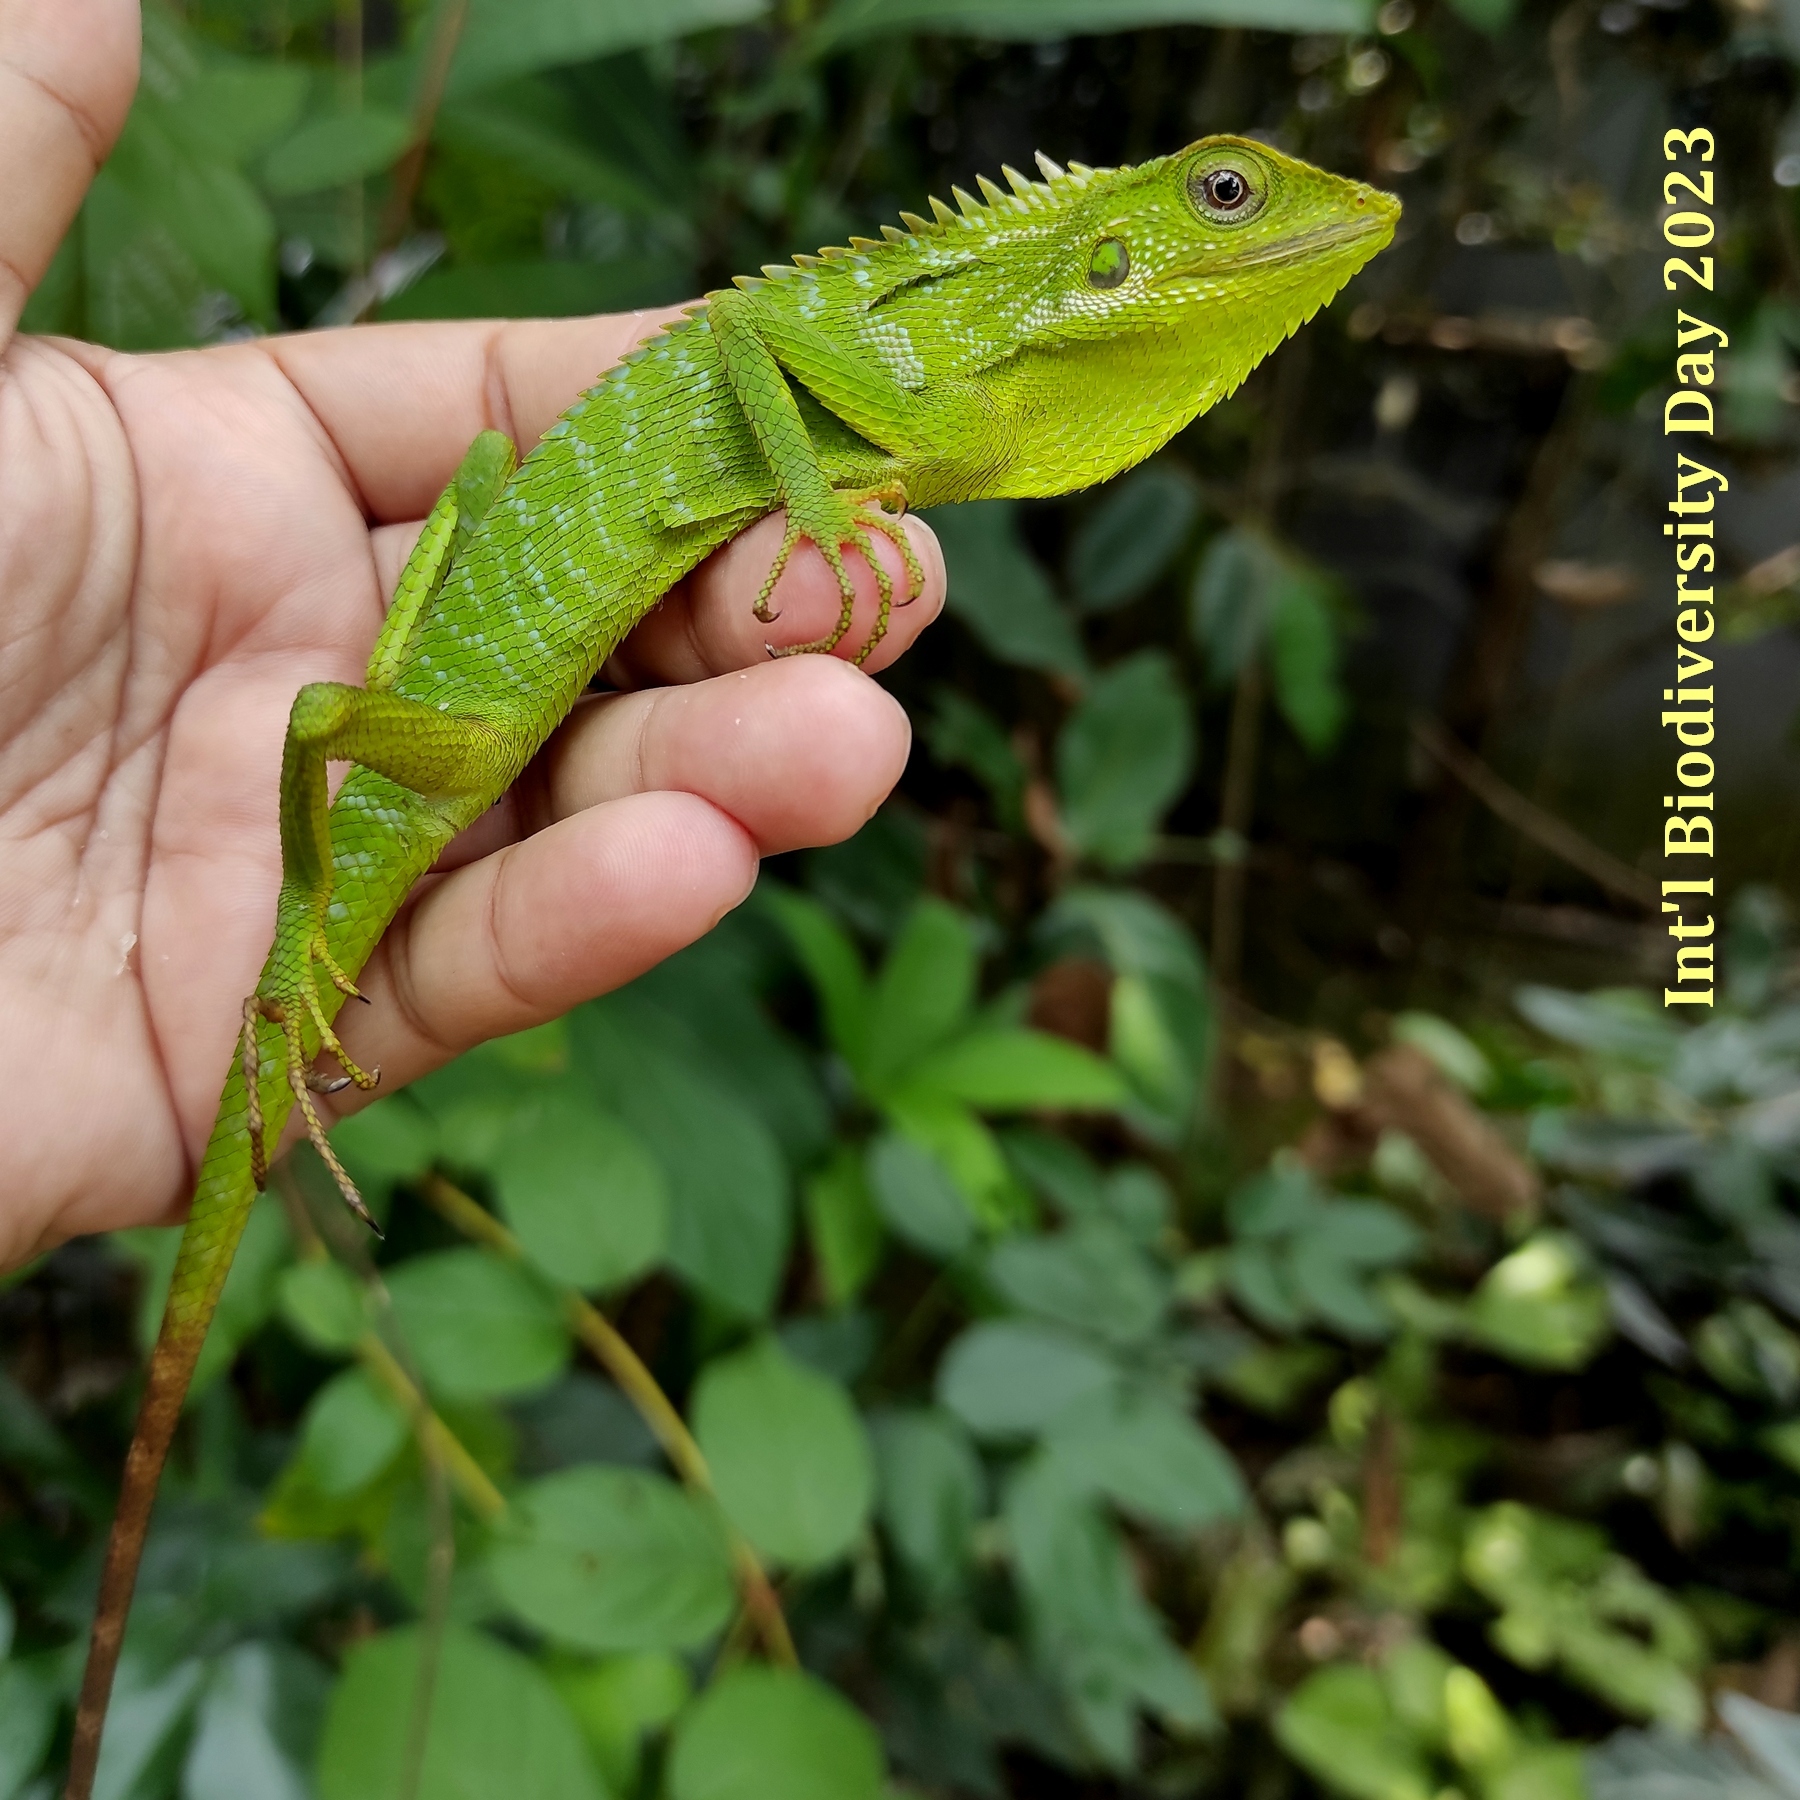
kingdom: Animalia
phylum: Chordata
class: Squamata
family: Agamidae
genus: Bronchocela
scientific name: Bronchocela jubata
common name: Maned forest lizard
